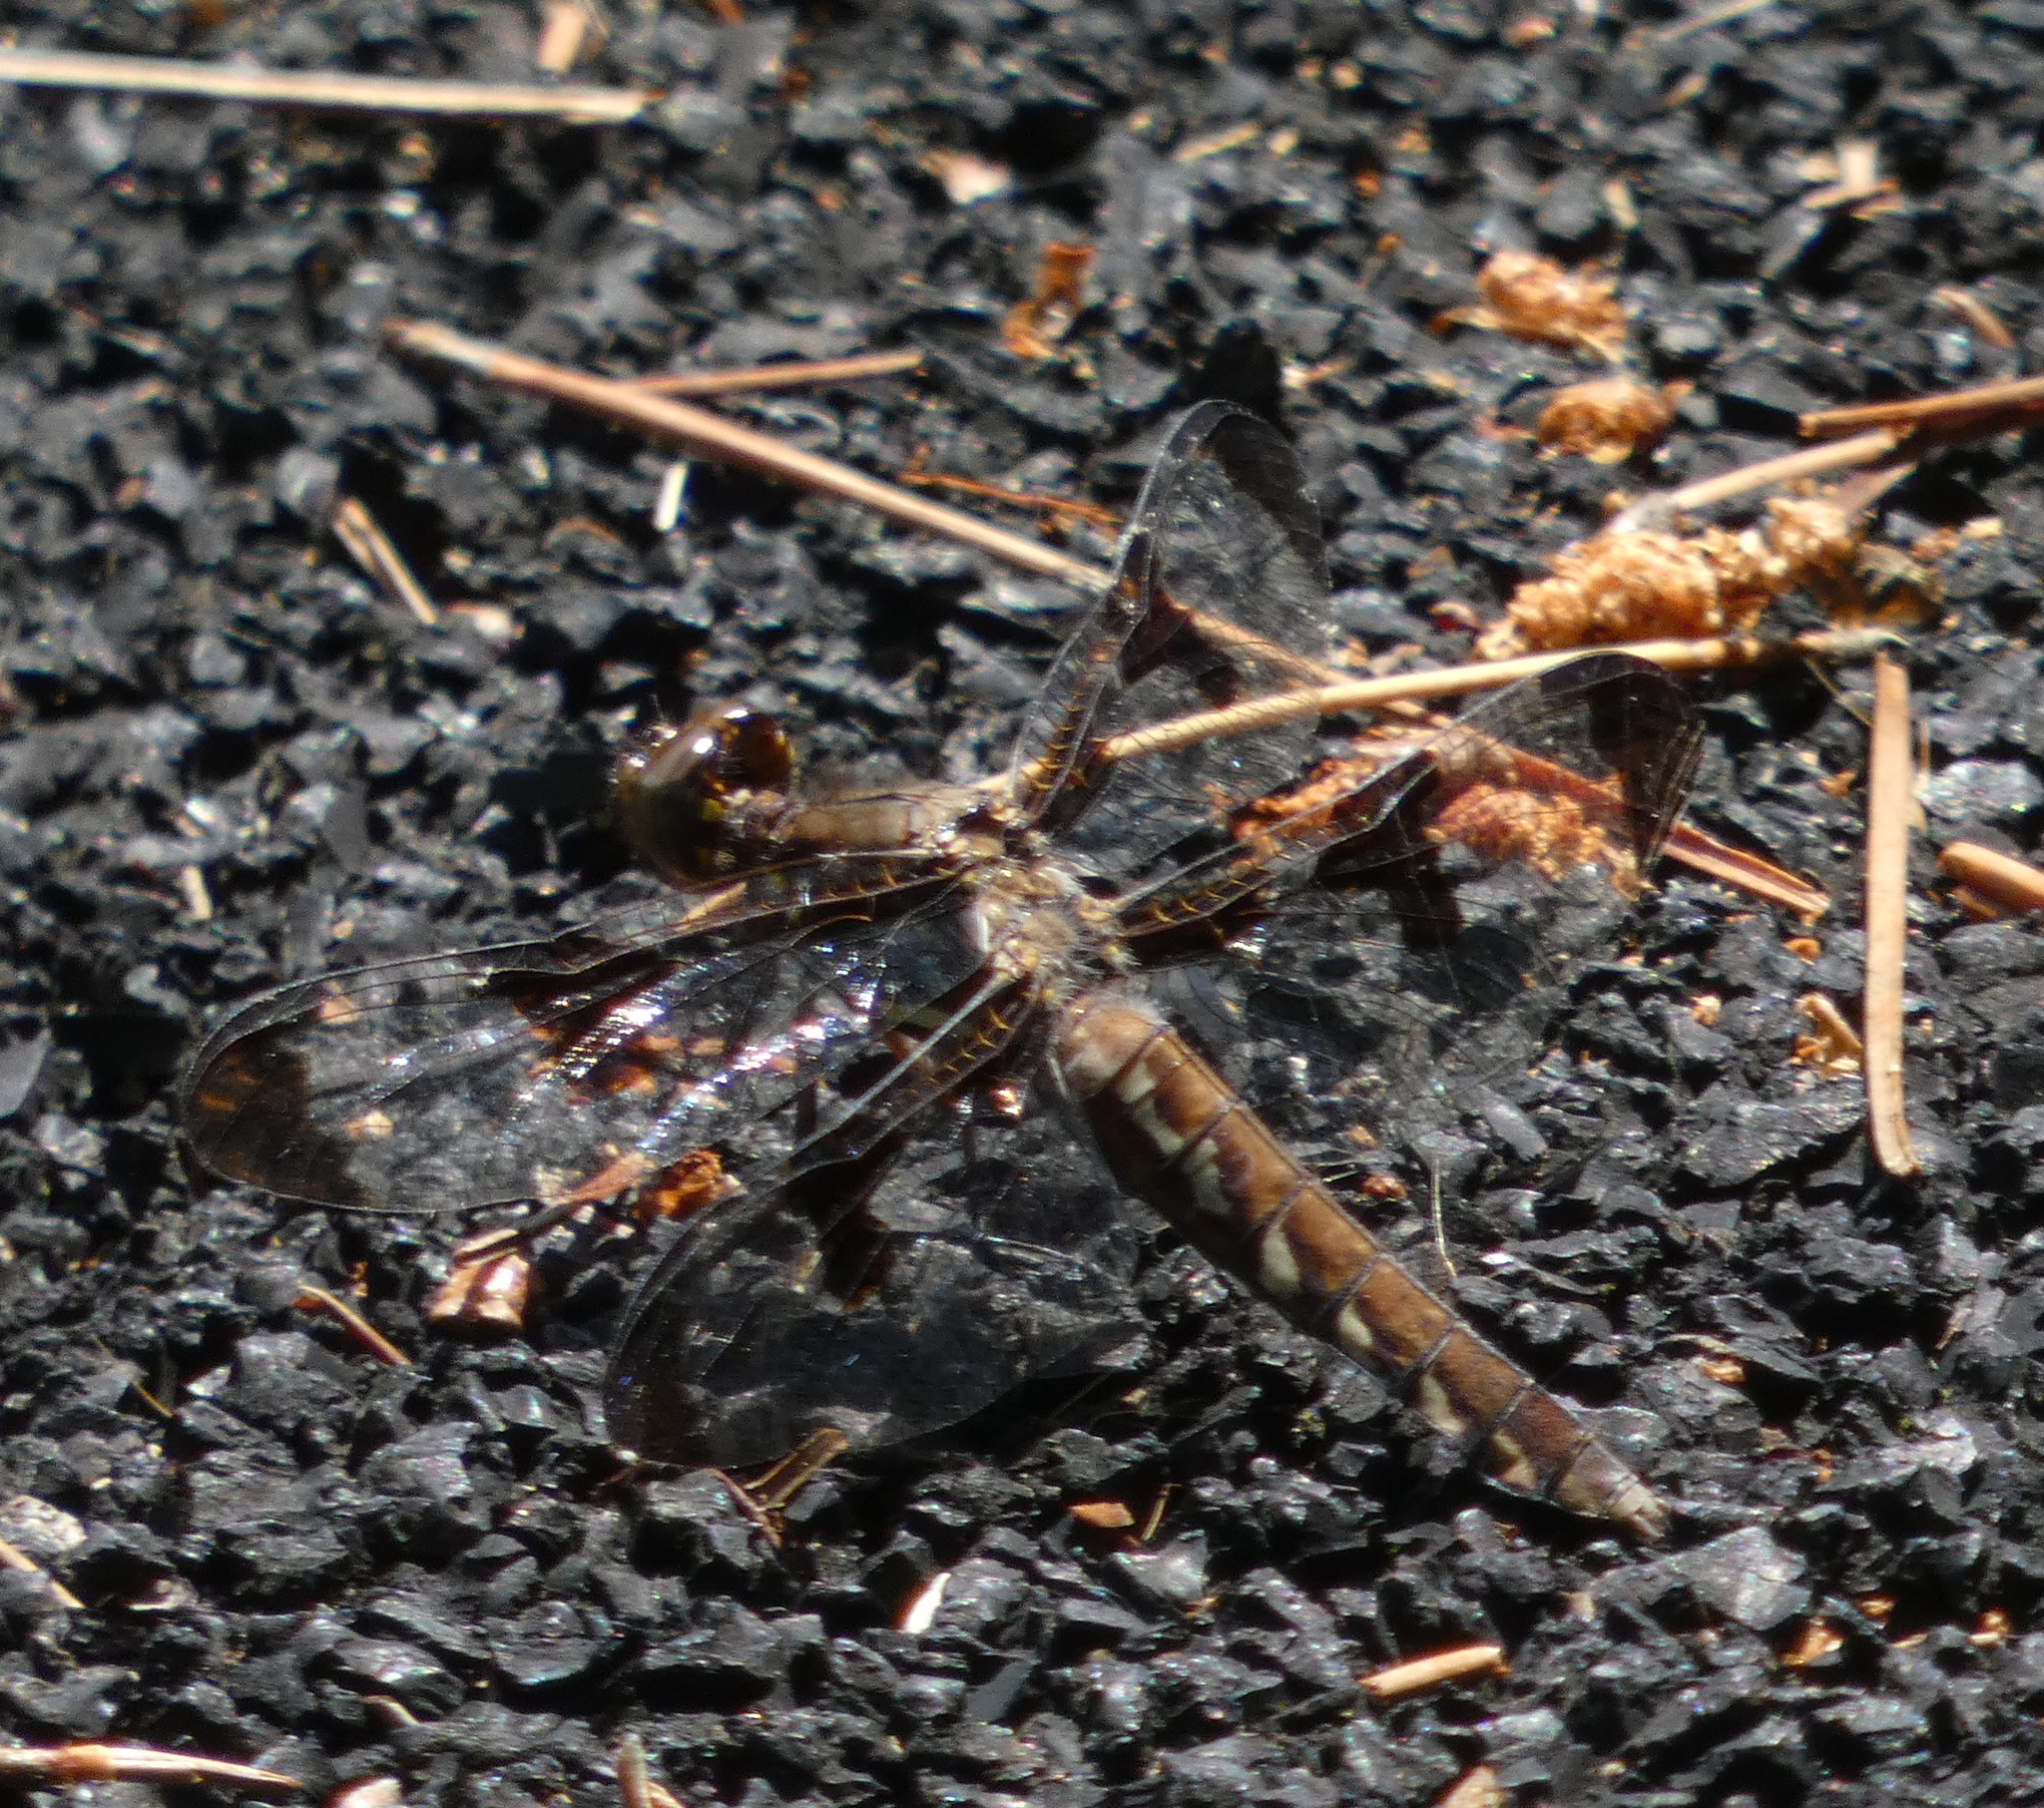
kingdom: Animalia
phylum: Arthropoda
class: Insecta
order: Odonata
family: Libellulidae
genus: Plathemis
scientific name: Plathemis lydia
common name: Common whitetail
